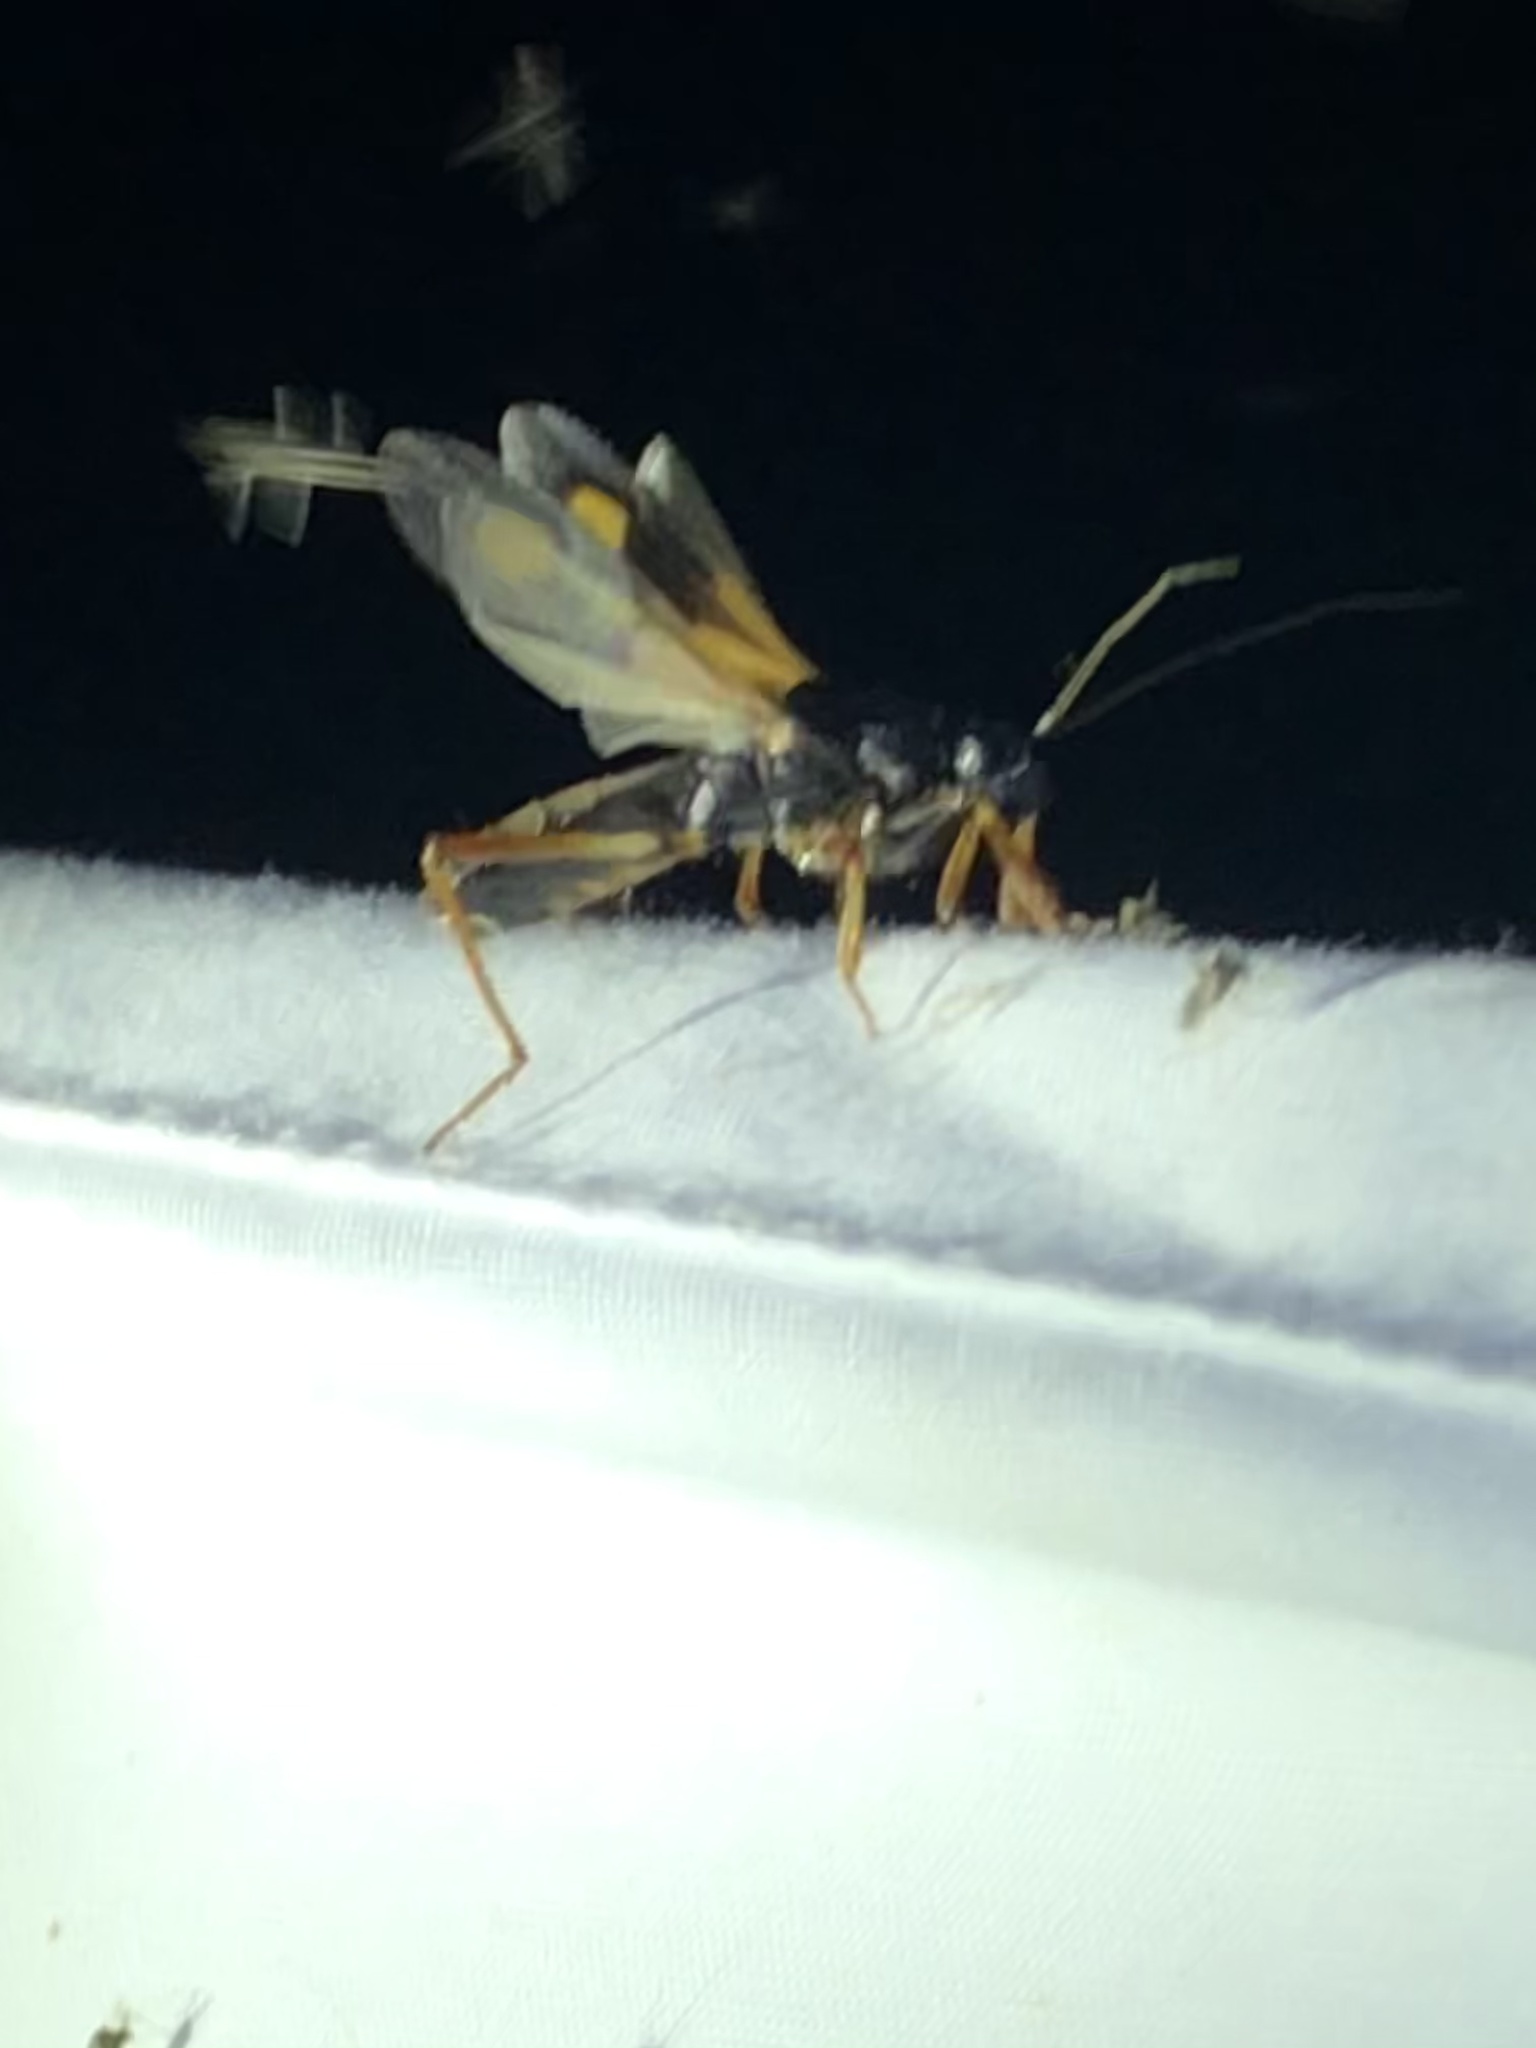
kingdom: Animalia
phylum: Arthropoda
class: Insecta
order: Hemiptera
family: Reduviidae
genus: Rasahus
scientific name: Rasahus biguttatus
